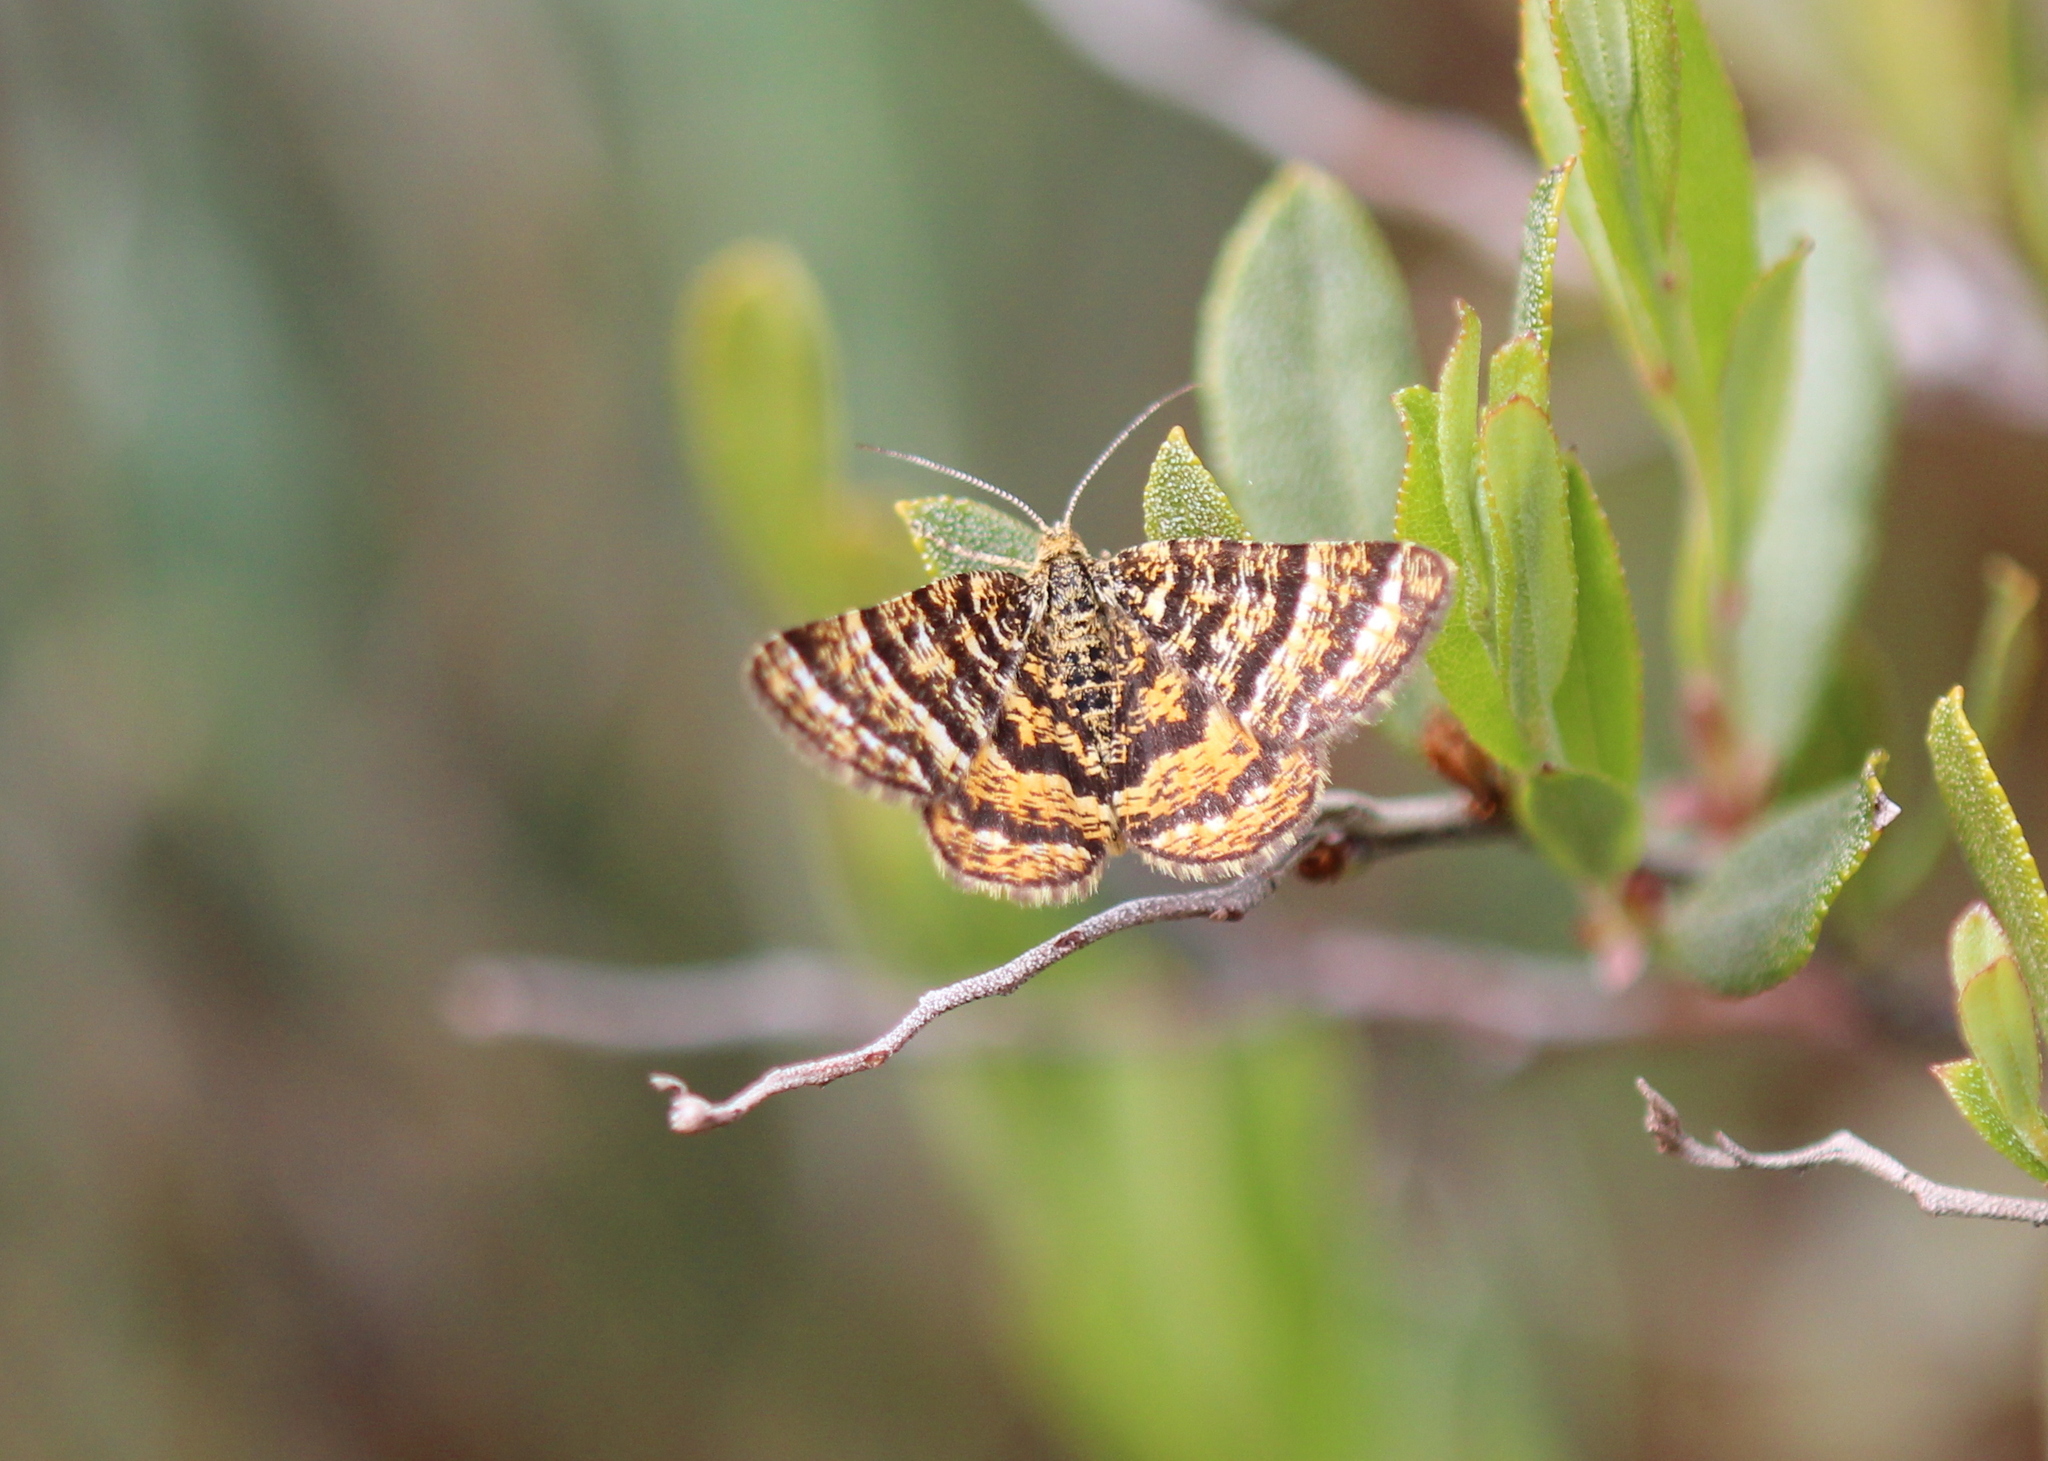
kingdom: Animalia
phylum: Arthropoda
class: Insecta
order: Lepidoptera
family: Geometridae
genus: Macaria
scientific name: Macaria truncataria
